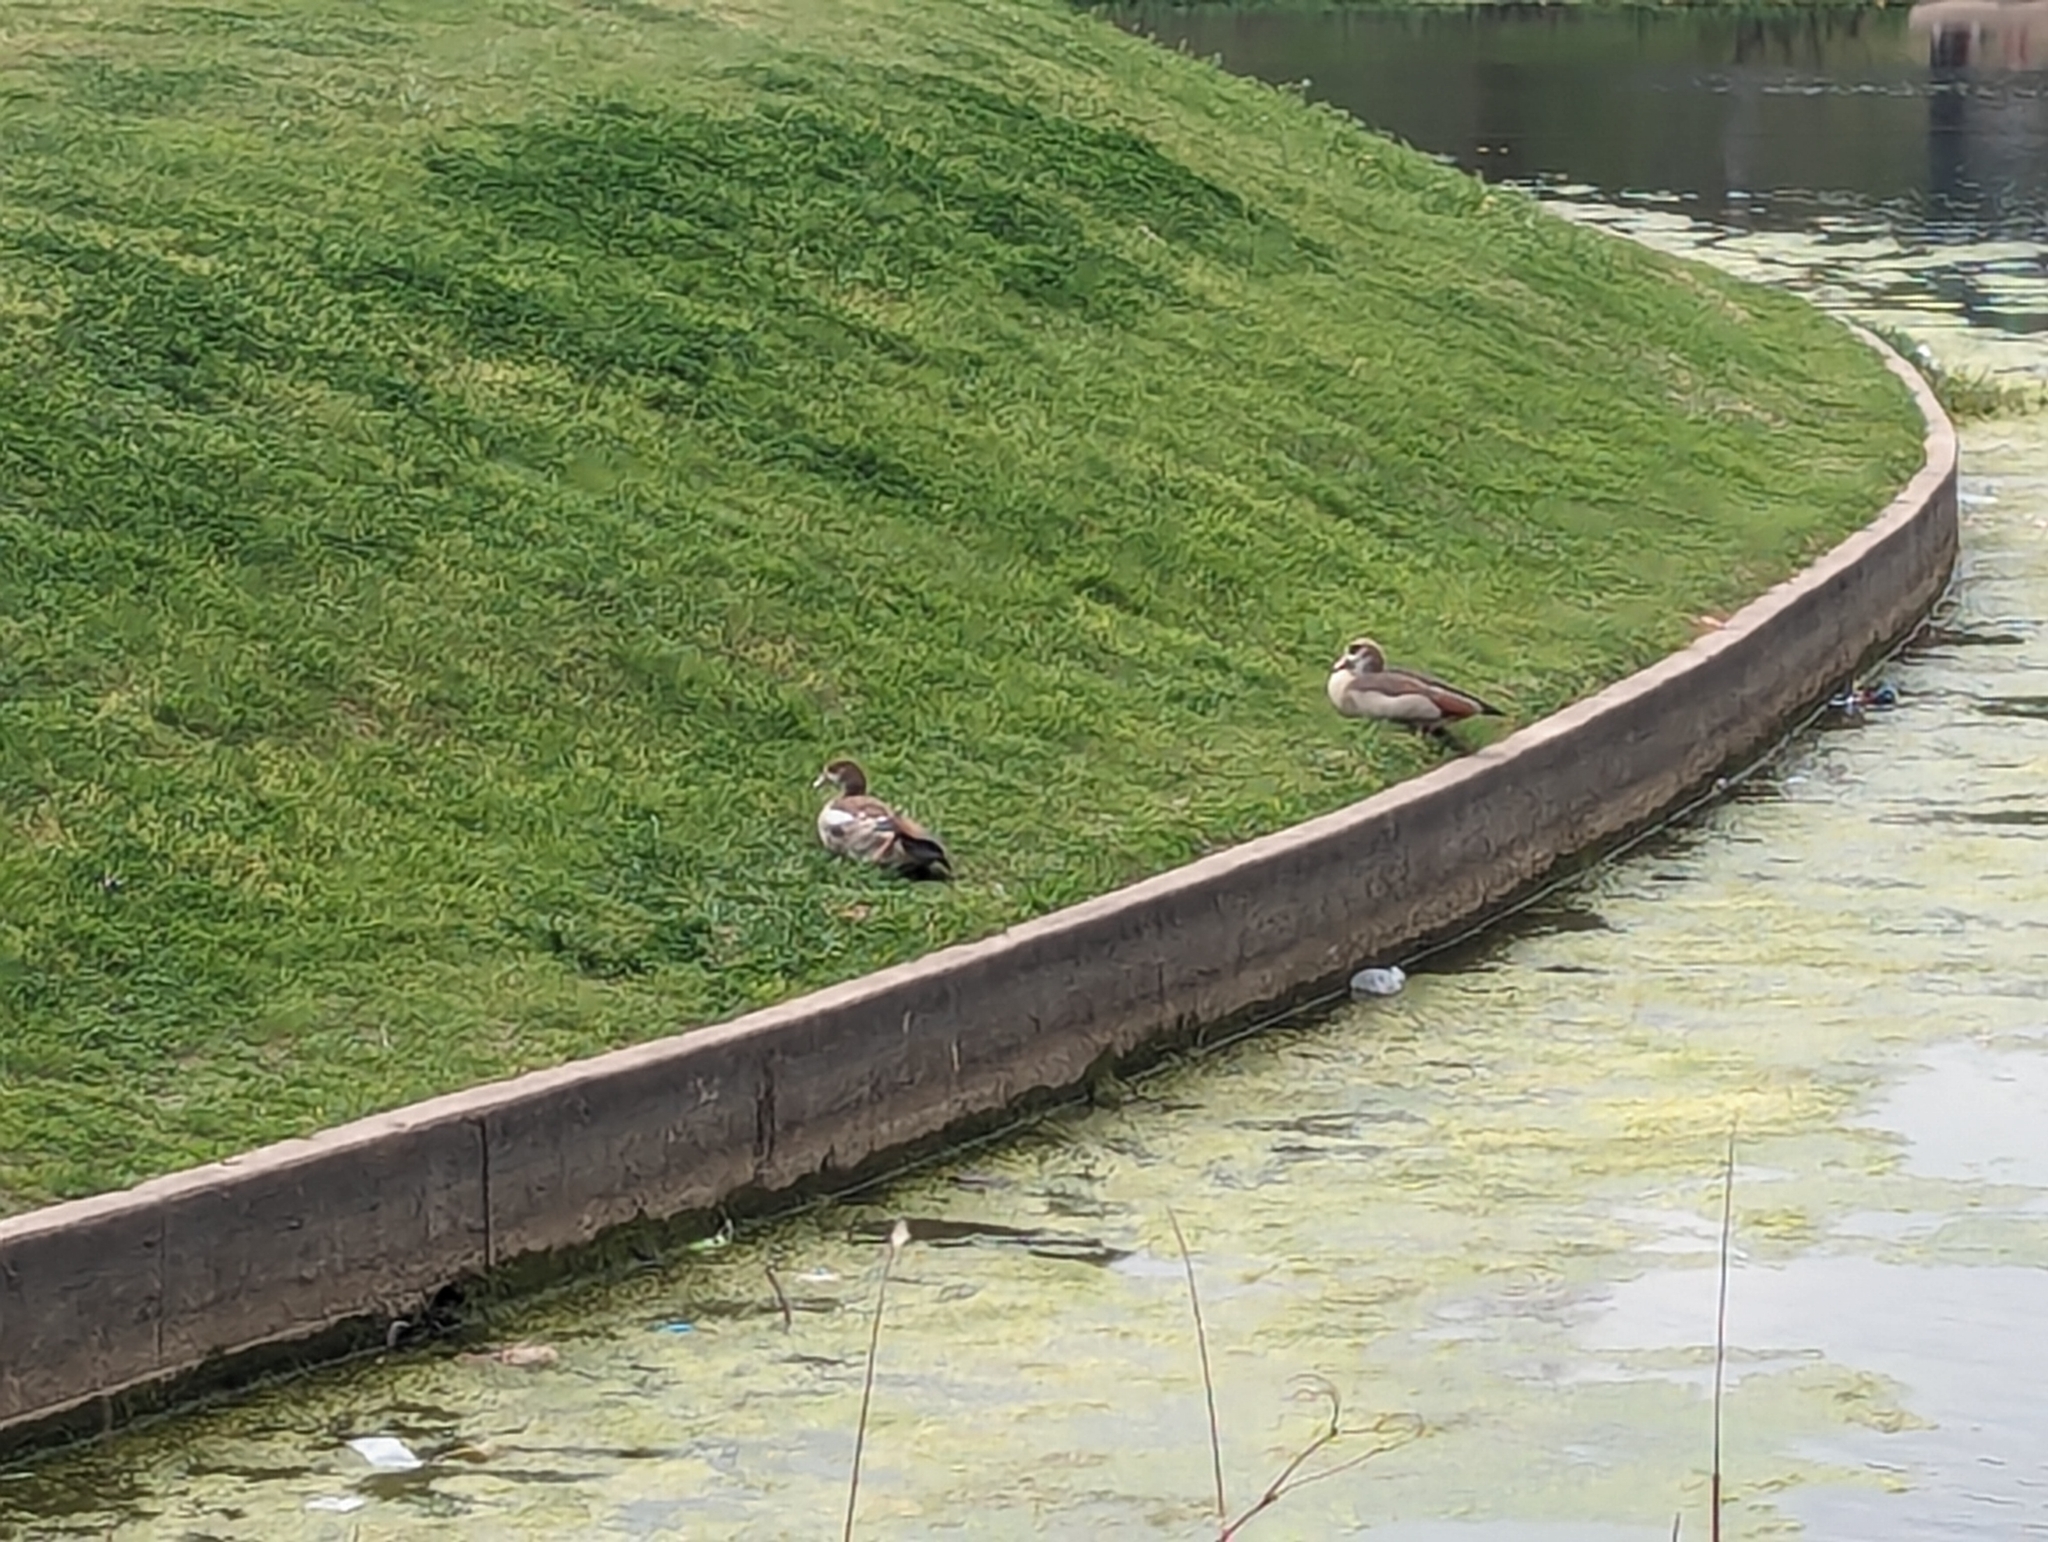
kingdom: Animalia
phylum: Chordata
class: Aves
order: Anseriformes
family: Anatidae
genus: Alopochen
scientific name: Alopochen aegyptiaca
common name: Egyptian goose
